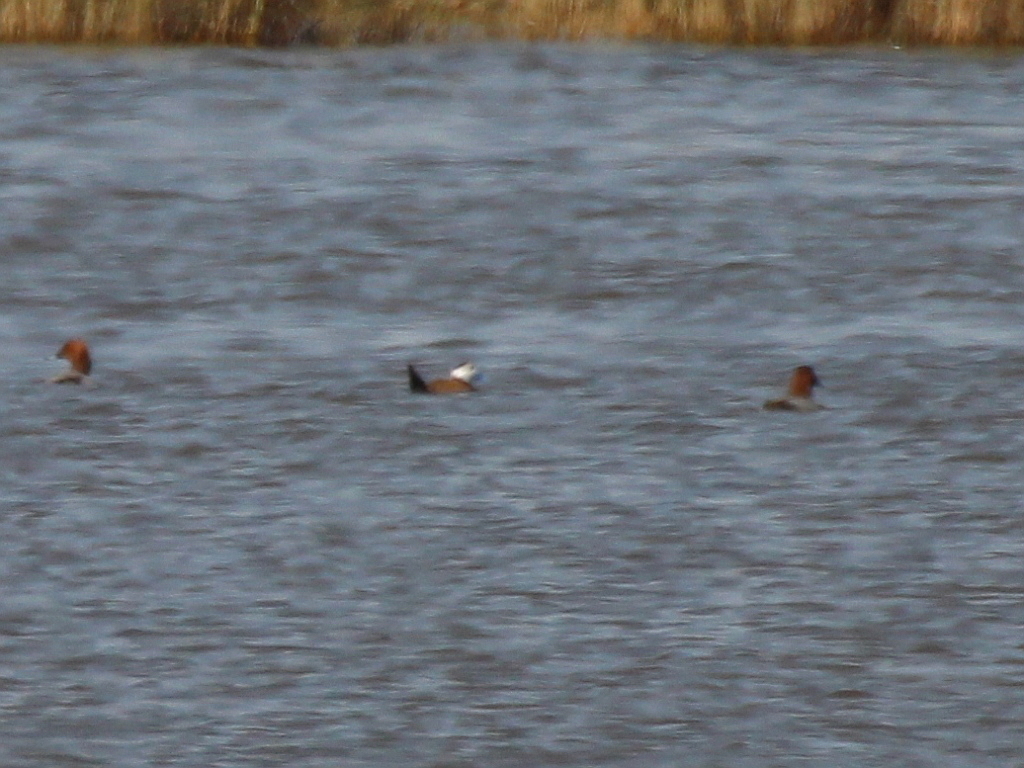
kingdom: Animalia
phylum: Chordata
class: Aves
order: Anseriformes
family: Anatidae
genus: Oxyura
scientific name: Oxyura leucocephala
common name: White-headed duck
